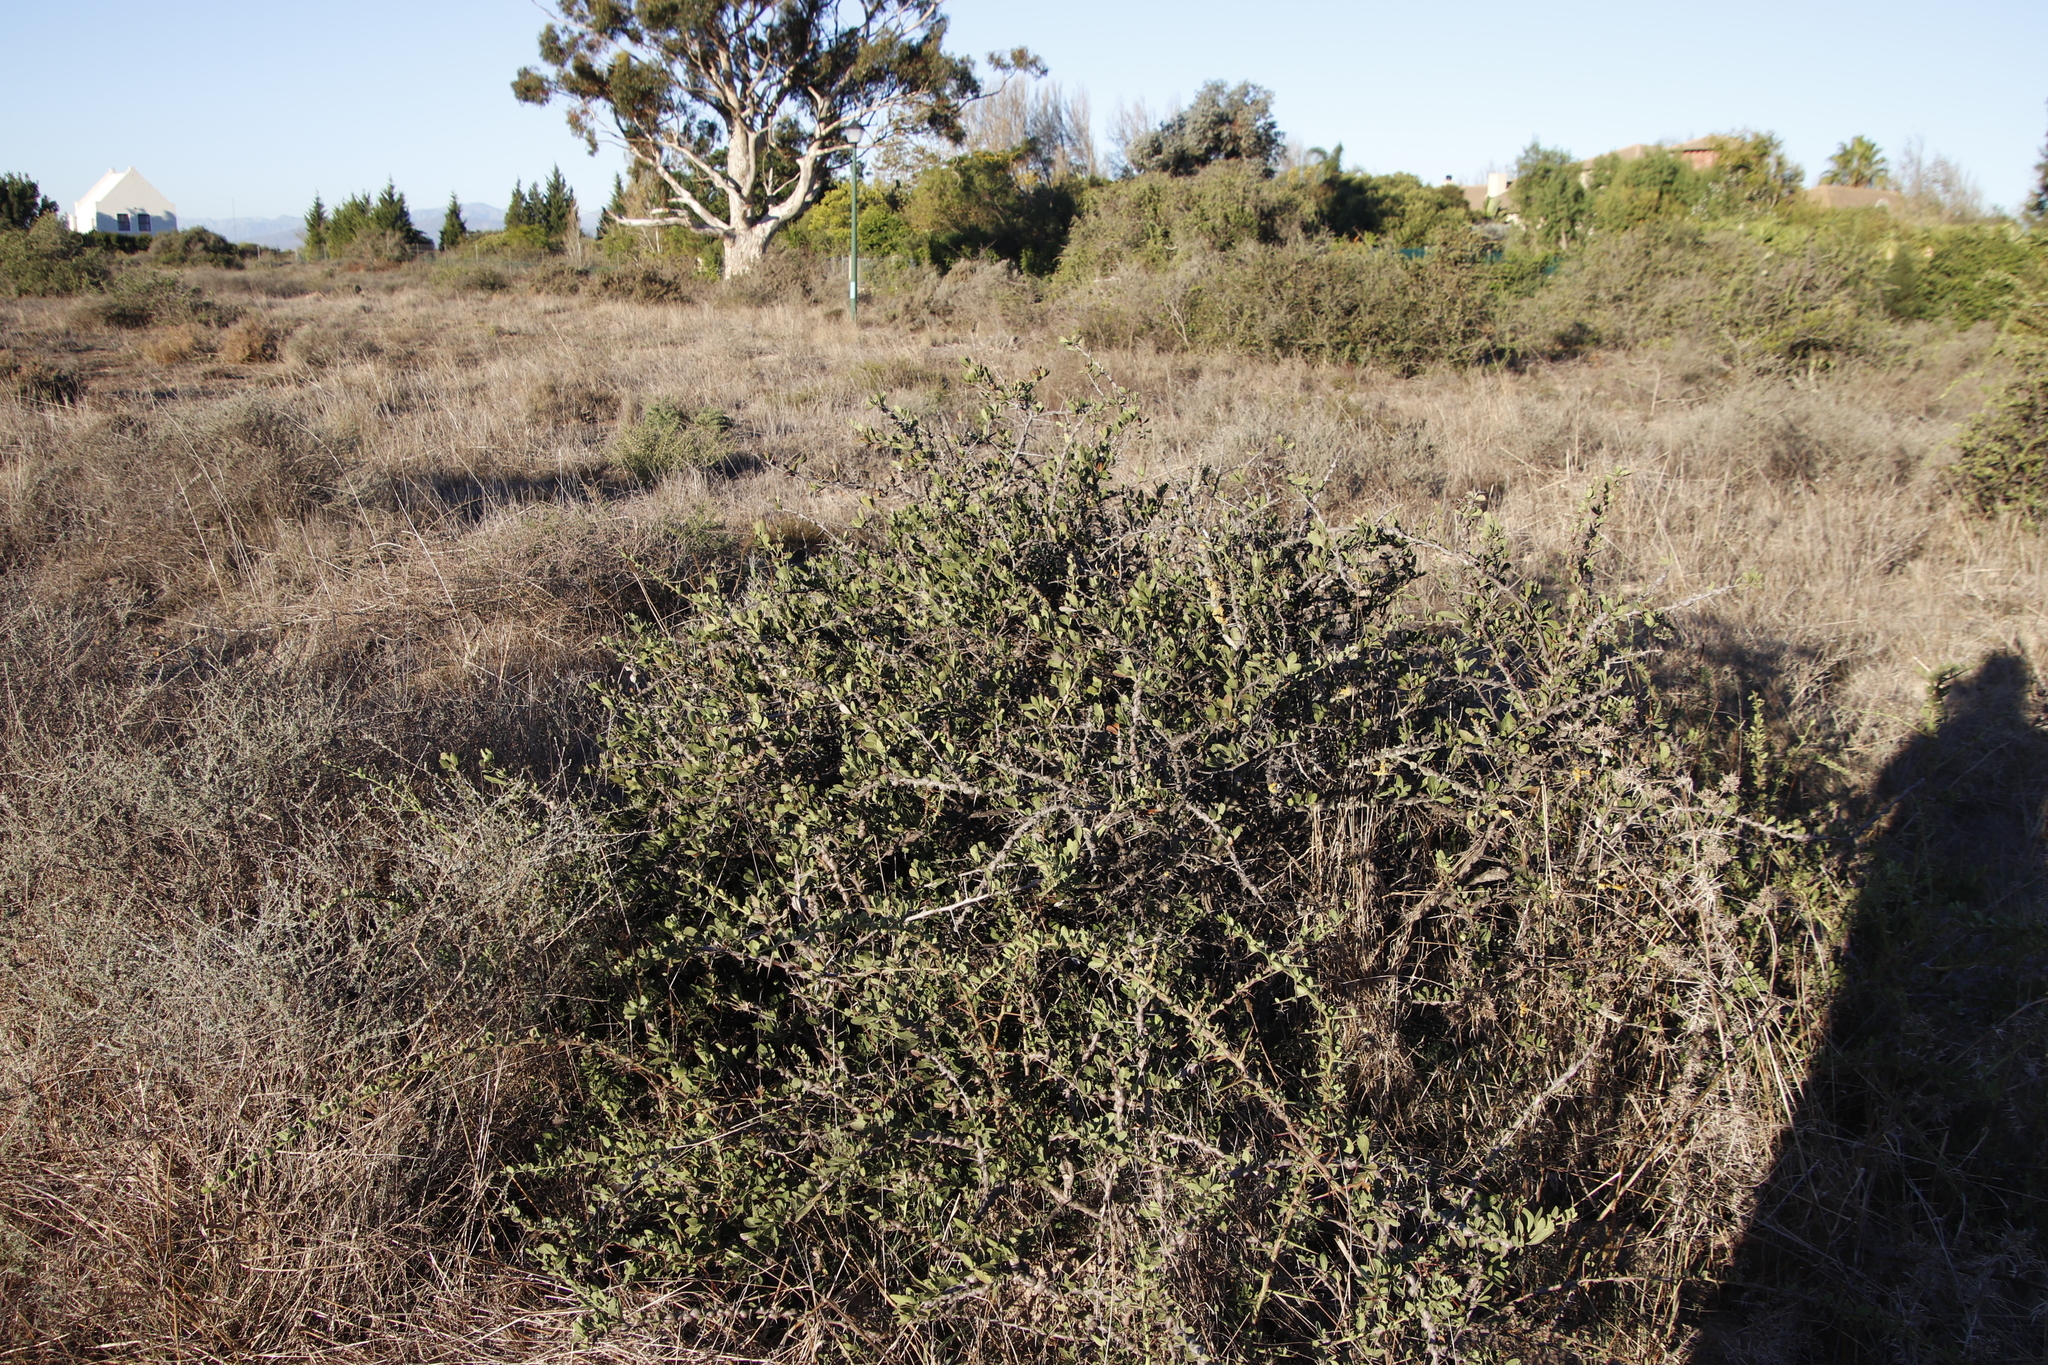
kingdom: Plantae
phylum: Tracheophyta
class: Magnoliopsida
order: Celastrales
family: Celastraceae
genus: Gymnosporia
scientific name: Gymnosporia buxifolia
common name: Common spike-thorn
